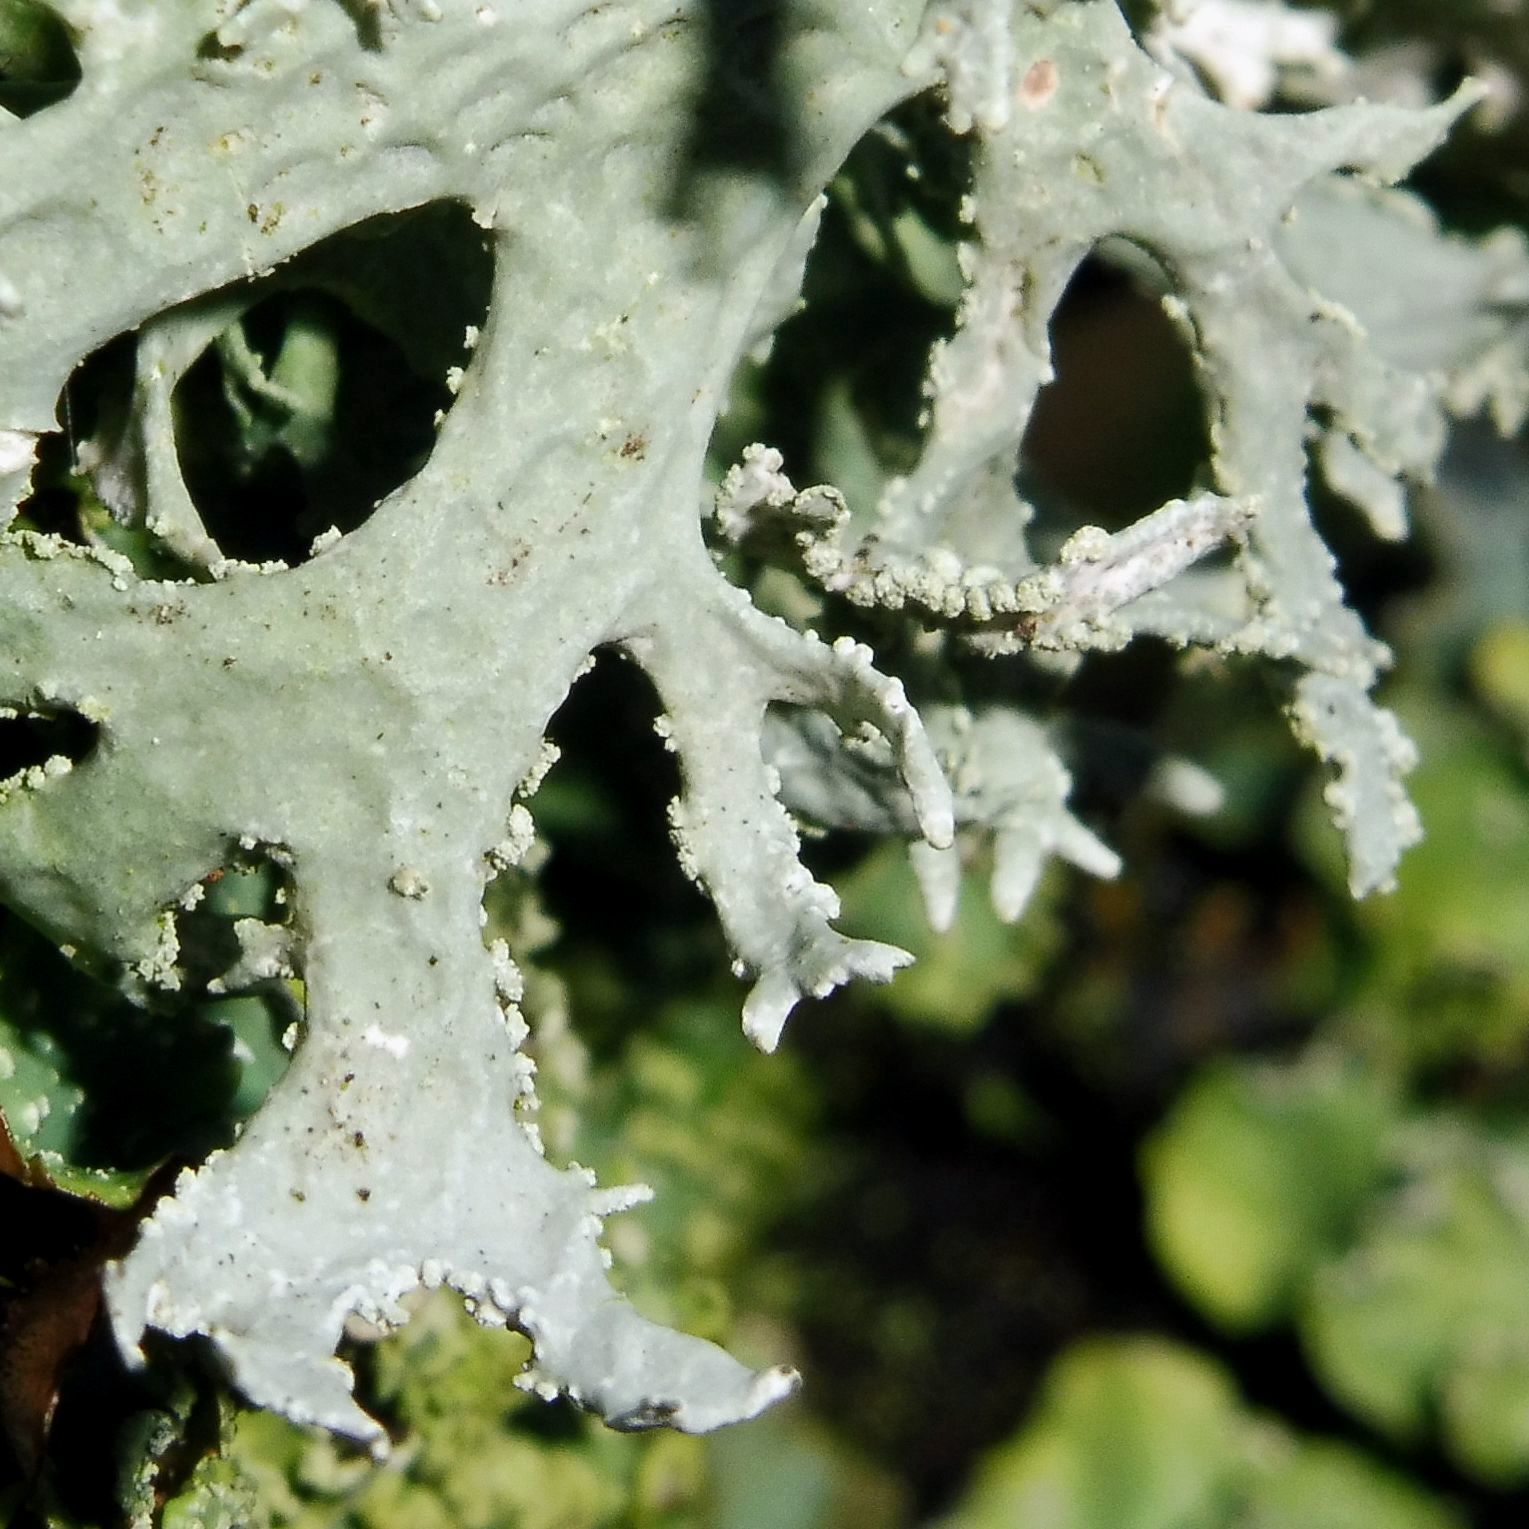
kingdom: Fungi
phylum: Ascomycota
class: Lecanoromycetes
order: Lecanorales
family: Parmeliaceae
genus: Evernia
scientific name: Evernia prunastri
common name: Oak moss
